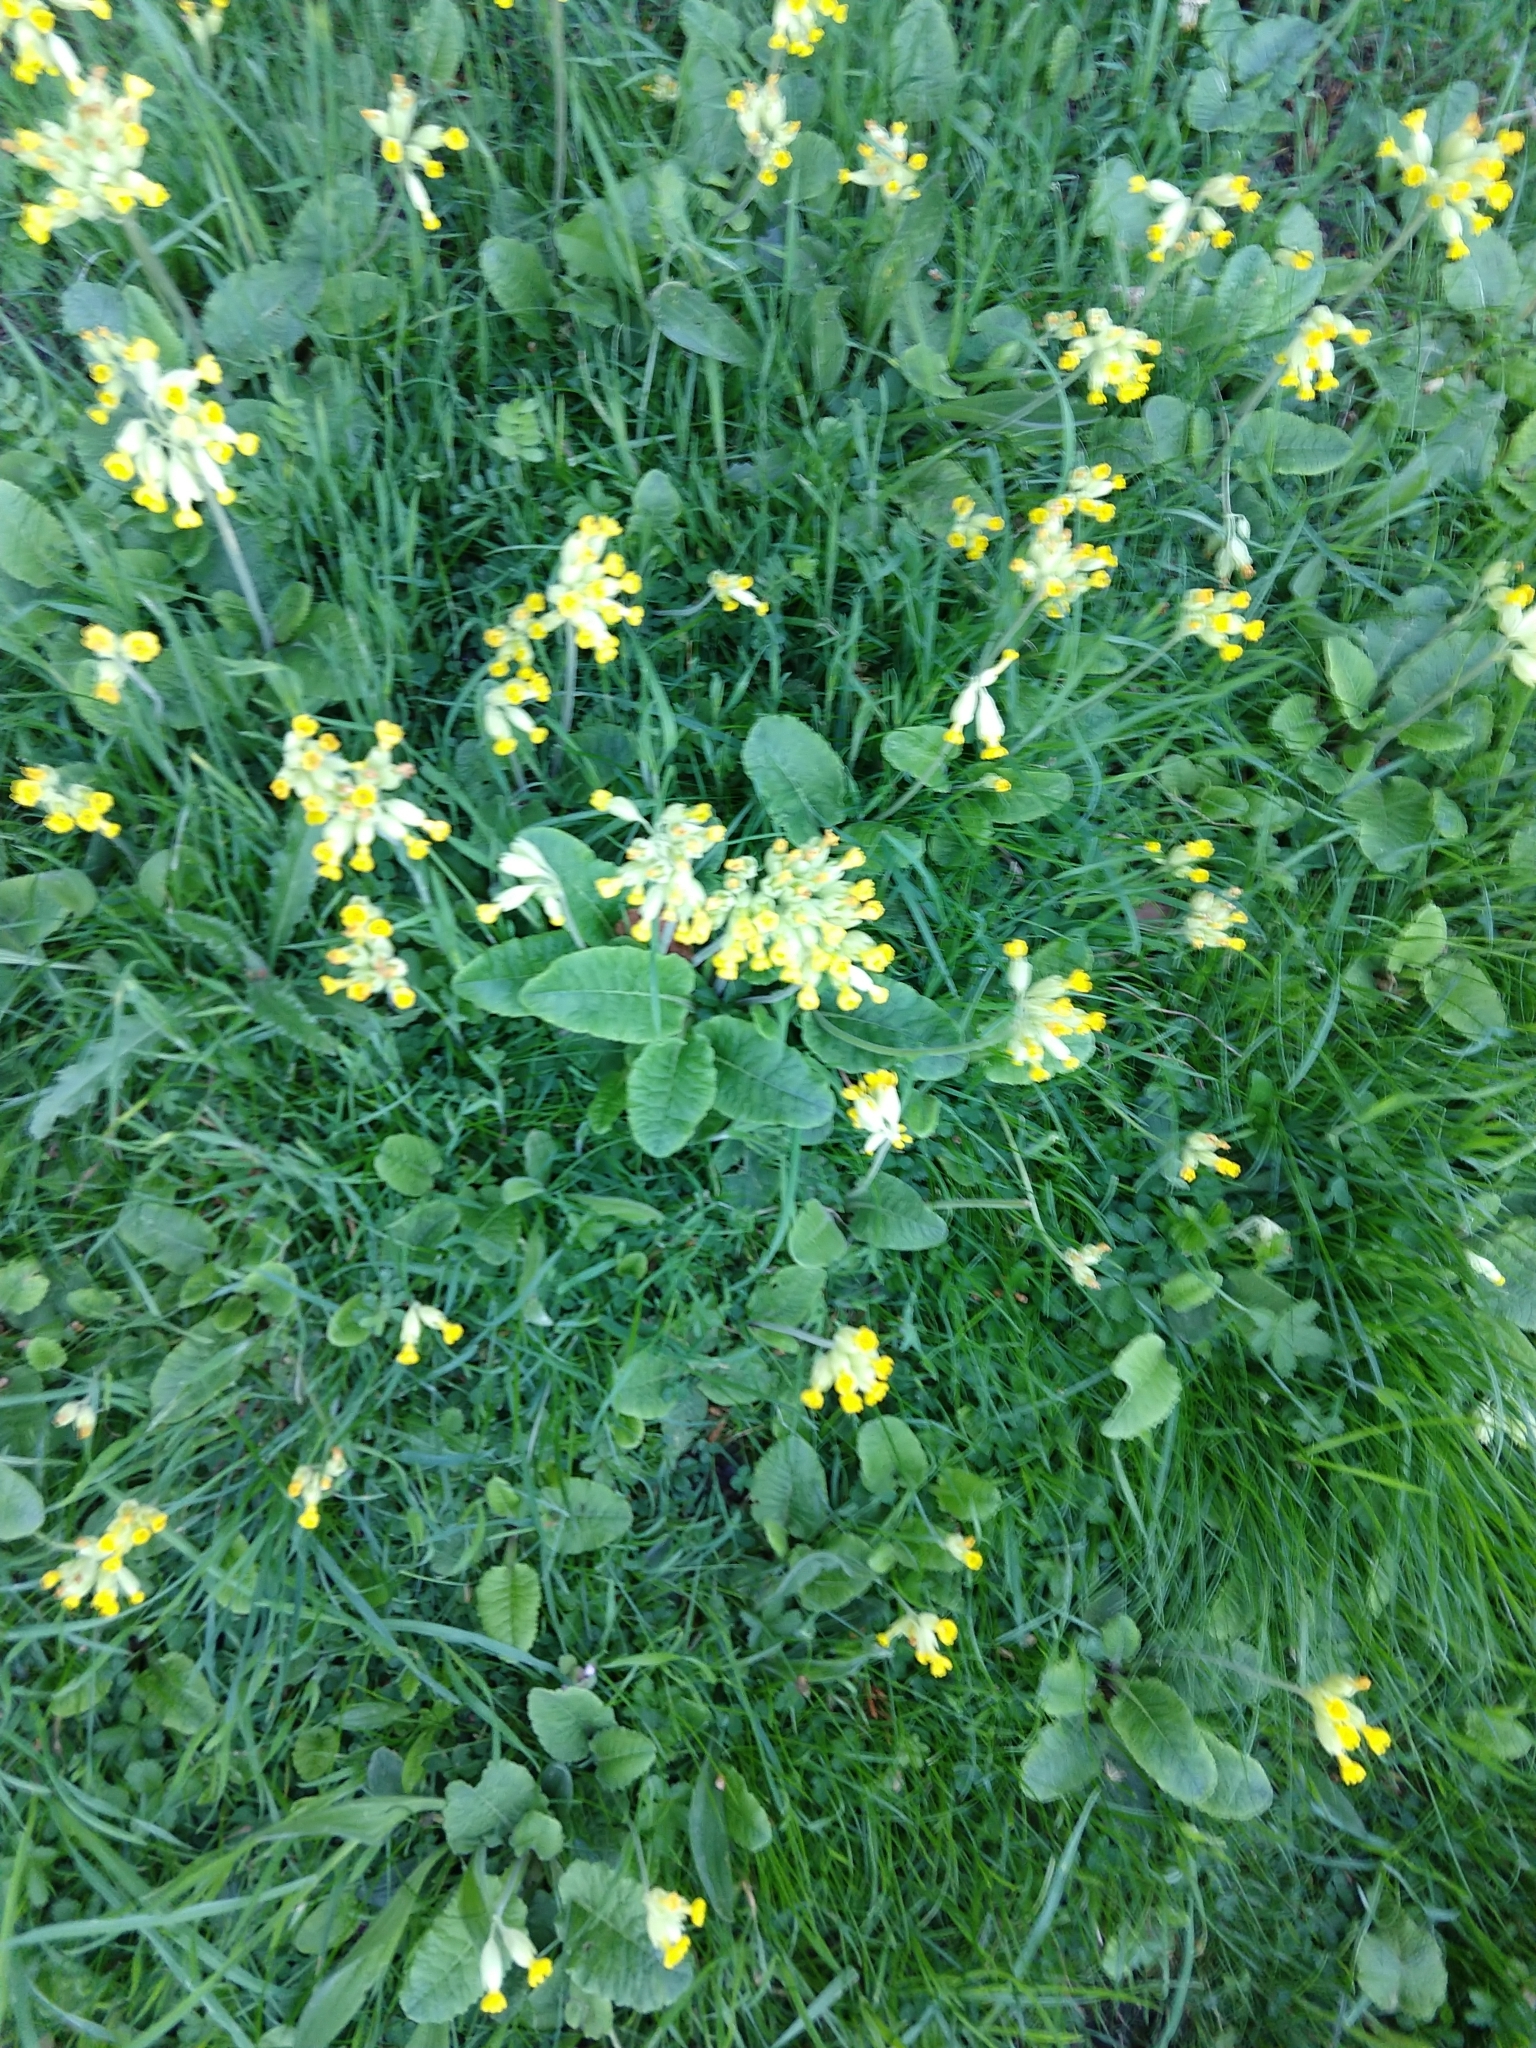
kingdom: Plantae
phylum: Tracheophyta
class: Magnoliopsida
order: Ericales
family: Primulaceae
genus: Primula
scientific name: Primula veris
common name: Cowslip
